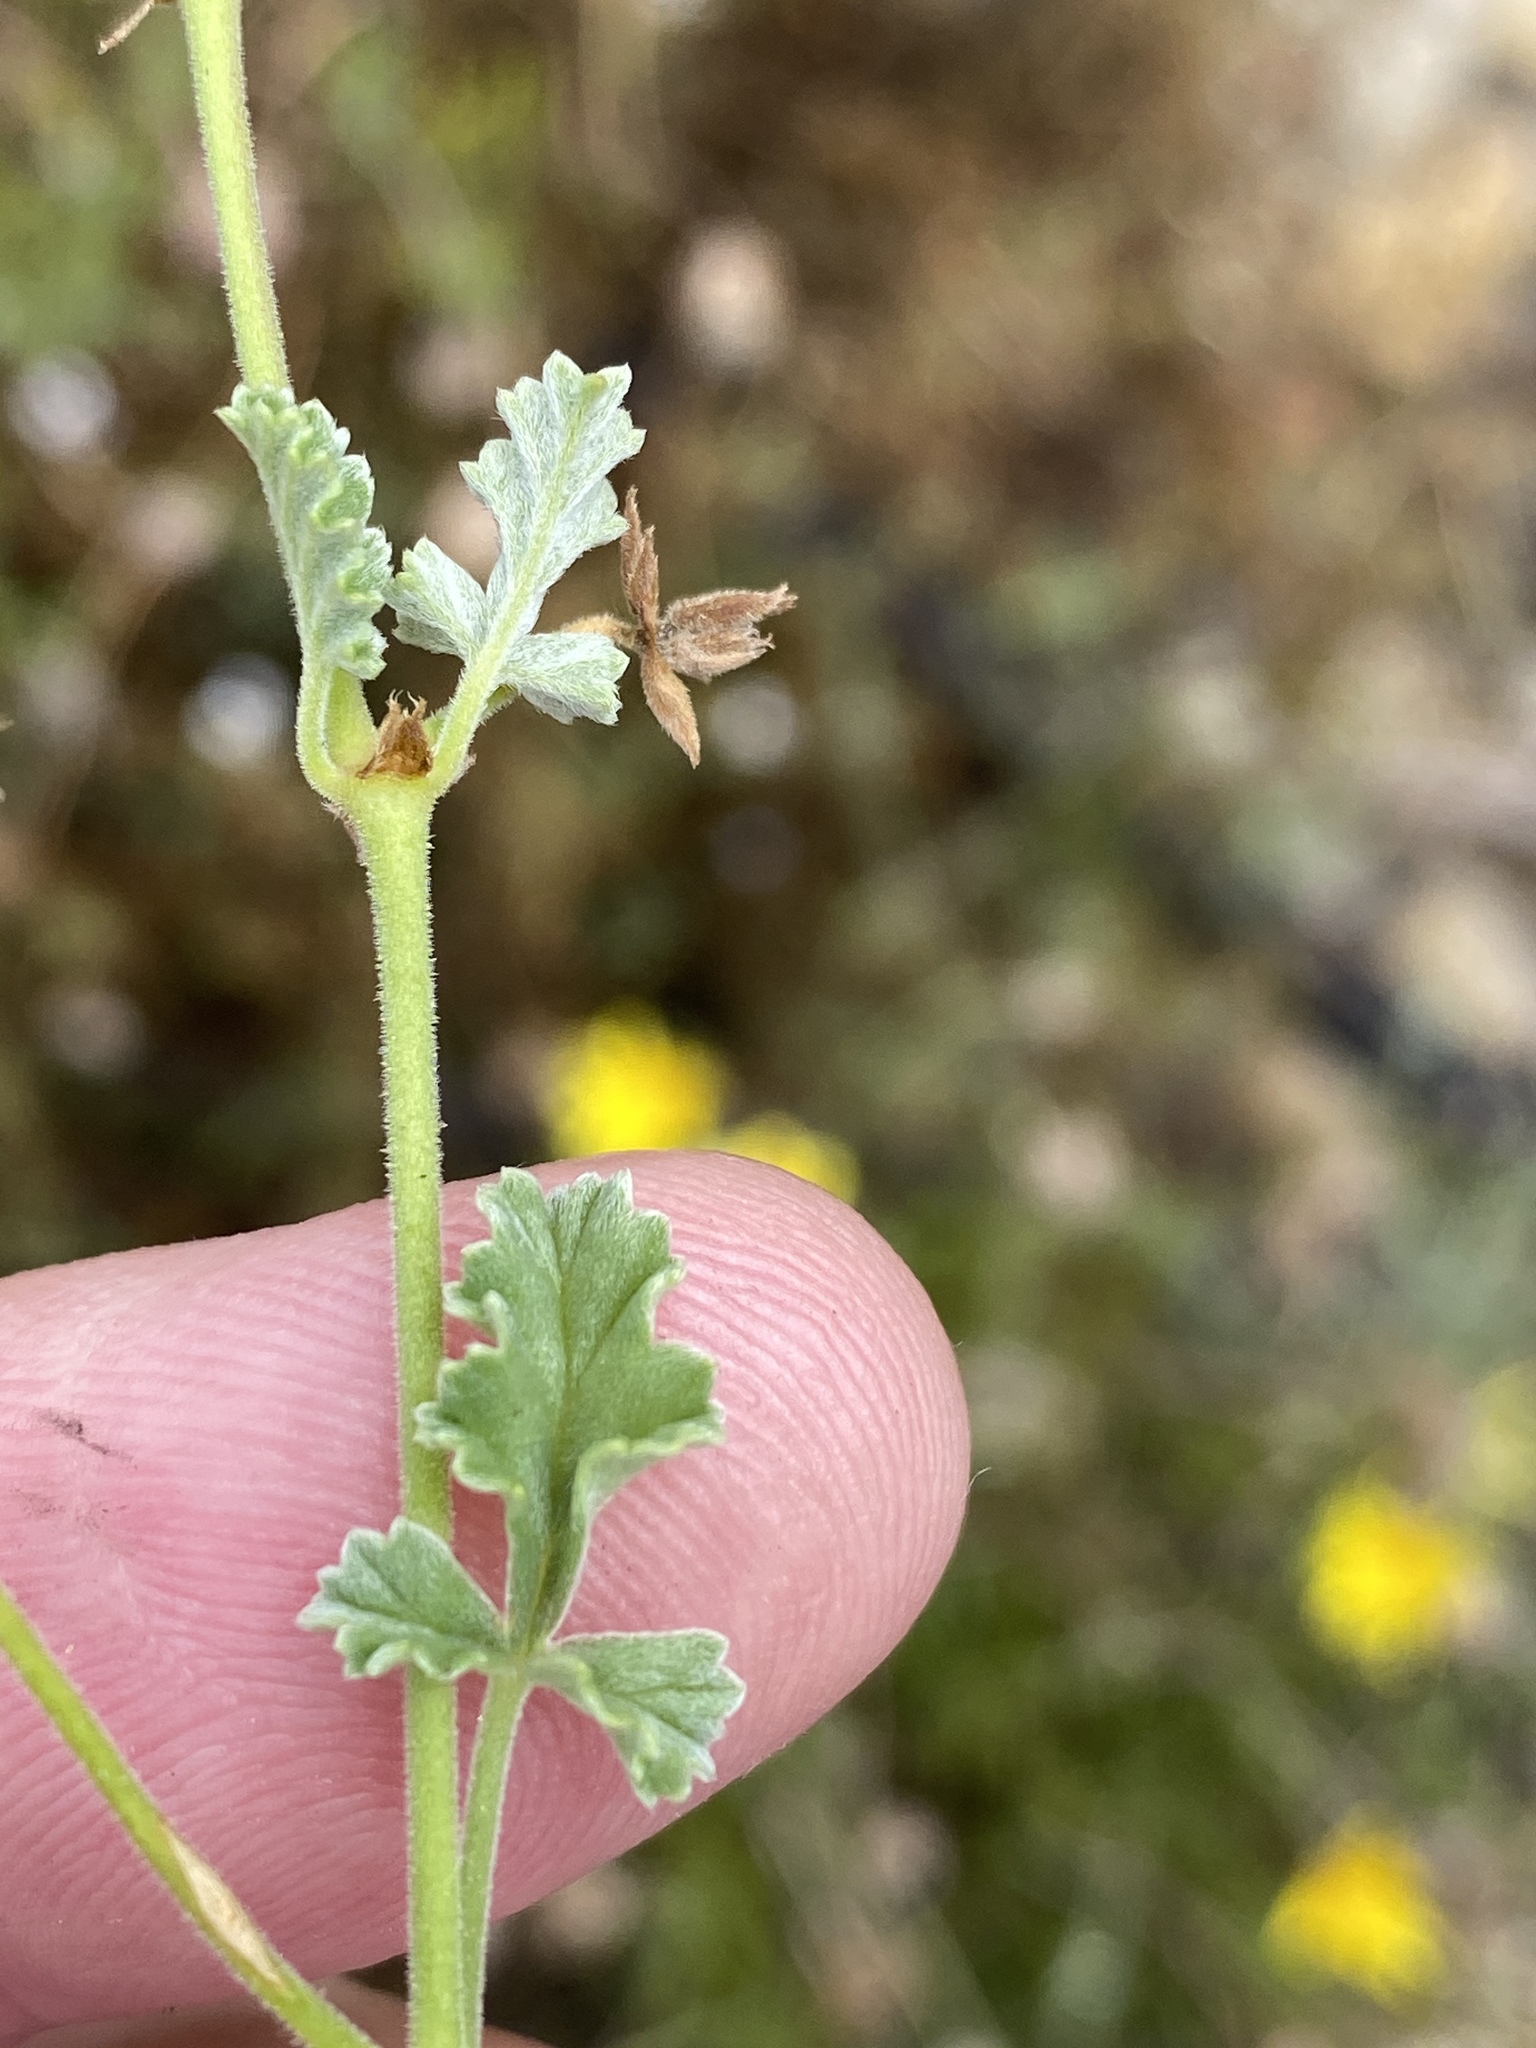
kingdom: Plantae
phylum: Tracheophyta
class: Magnoliopsida
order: Geraniales
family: Geraniaceae
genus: Pelargonium
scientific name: Pelargonium caucalifolium
